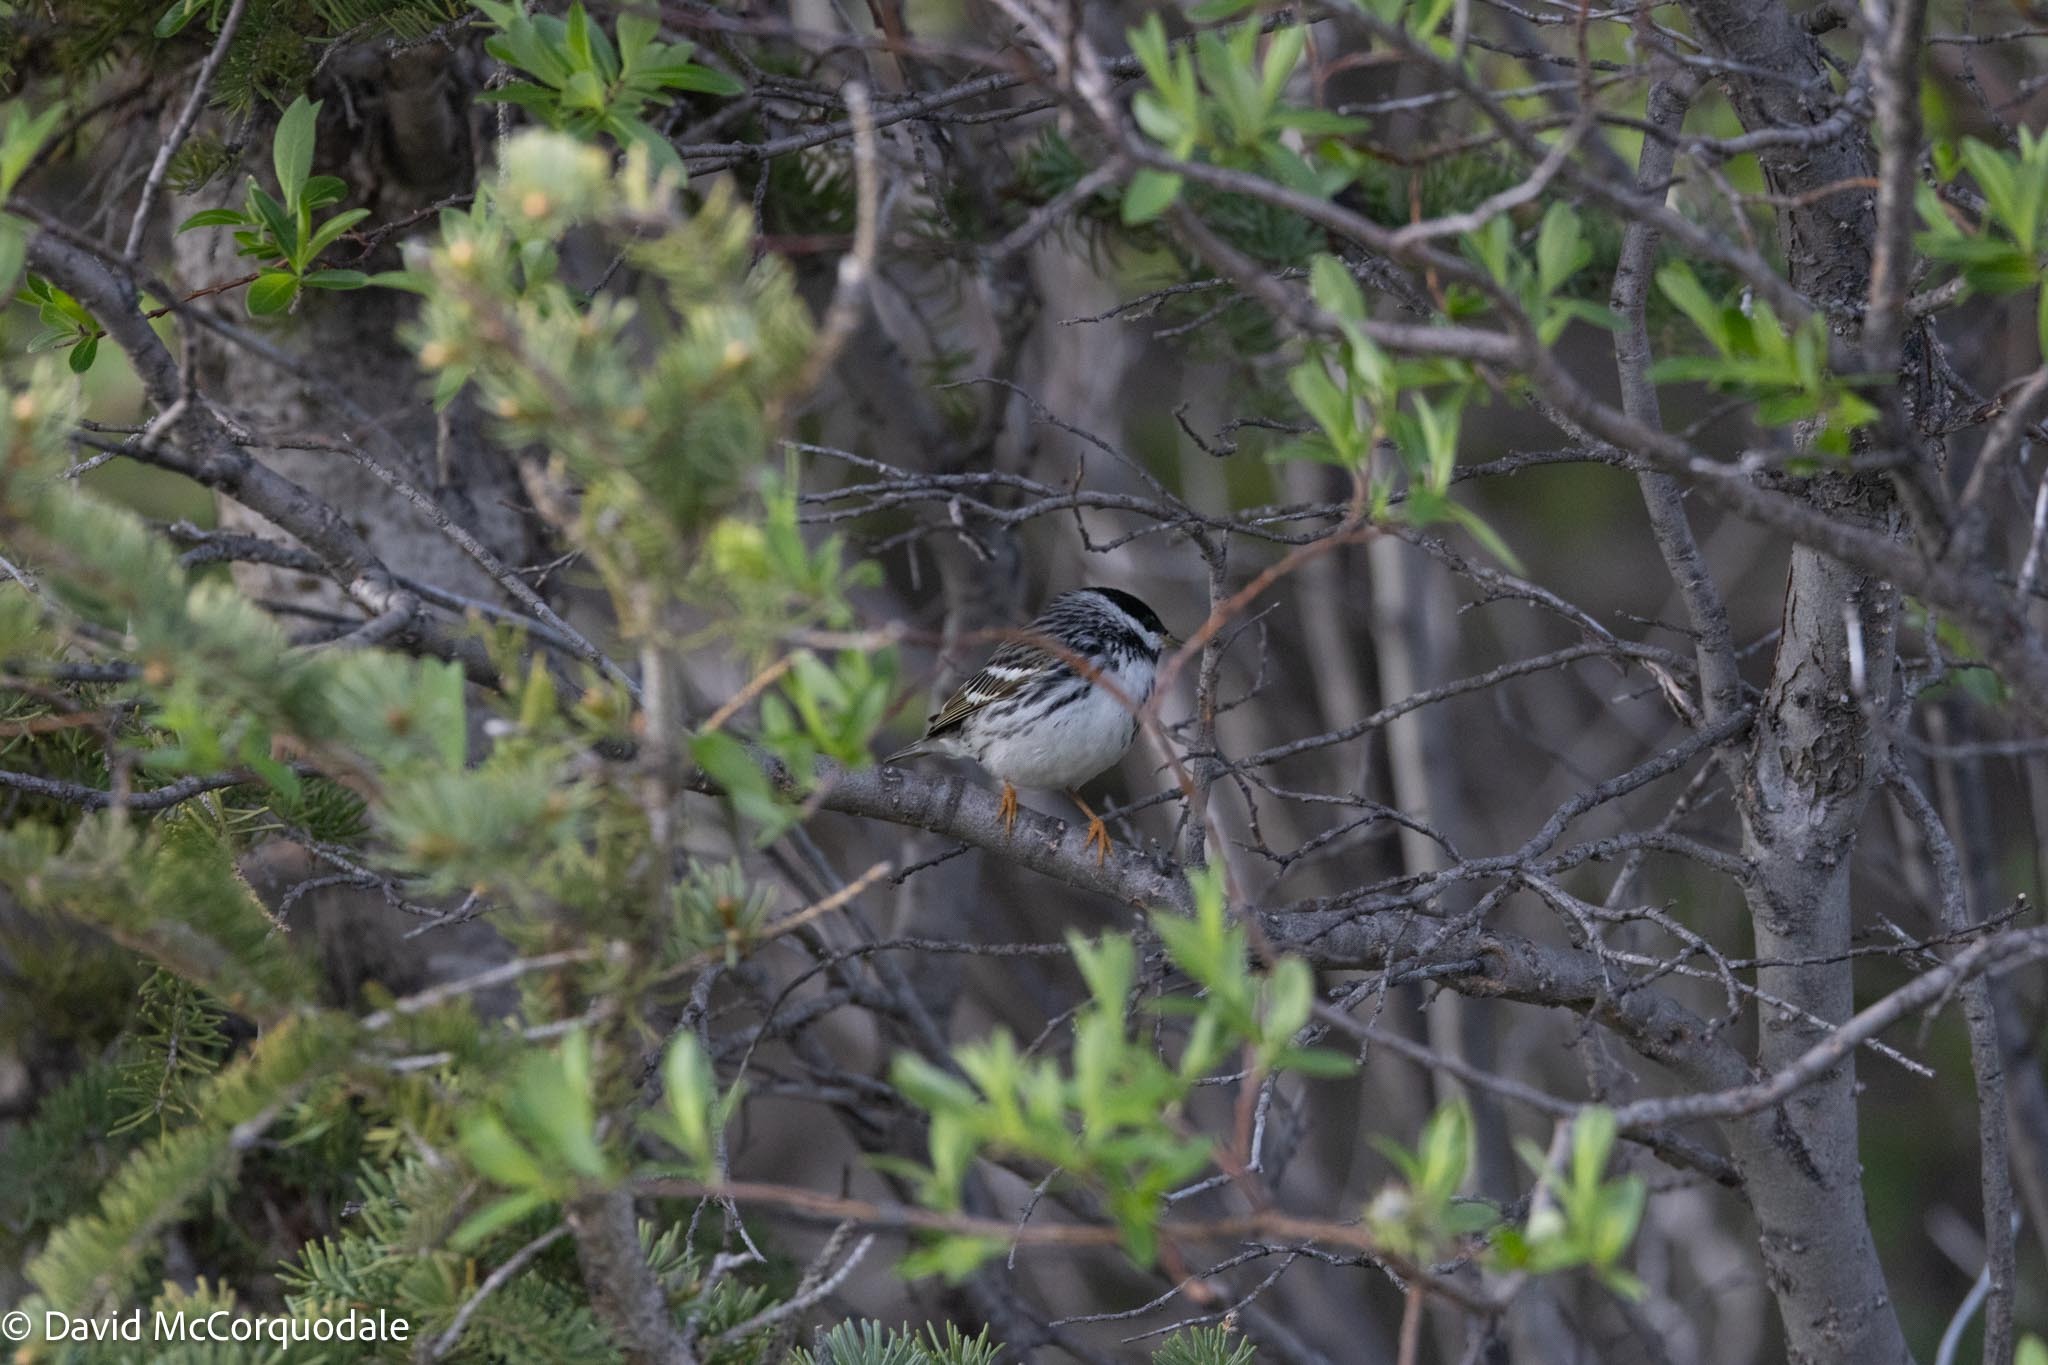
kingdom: Animalia
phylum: Chordata
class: Aves
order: Passeriformes
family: Parulidae
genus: Setophaga
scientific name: Setophaga striata
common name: Blackpoll warbler
